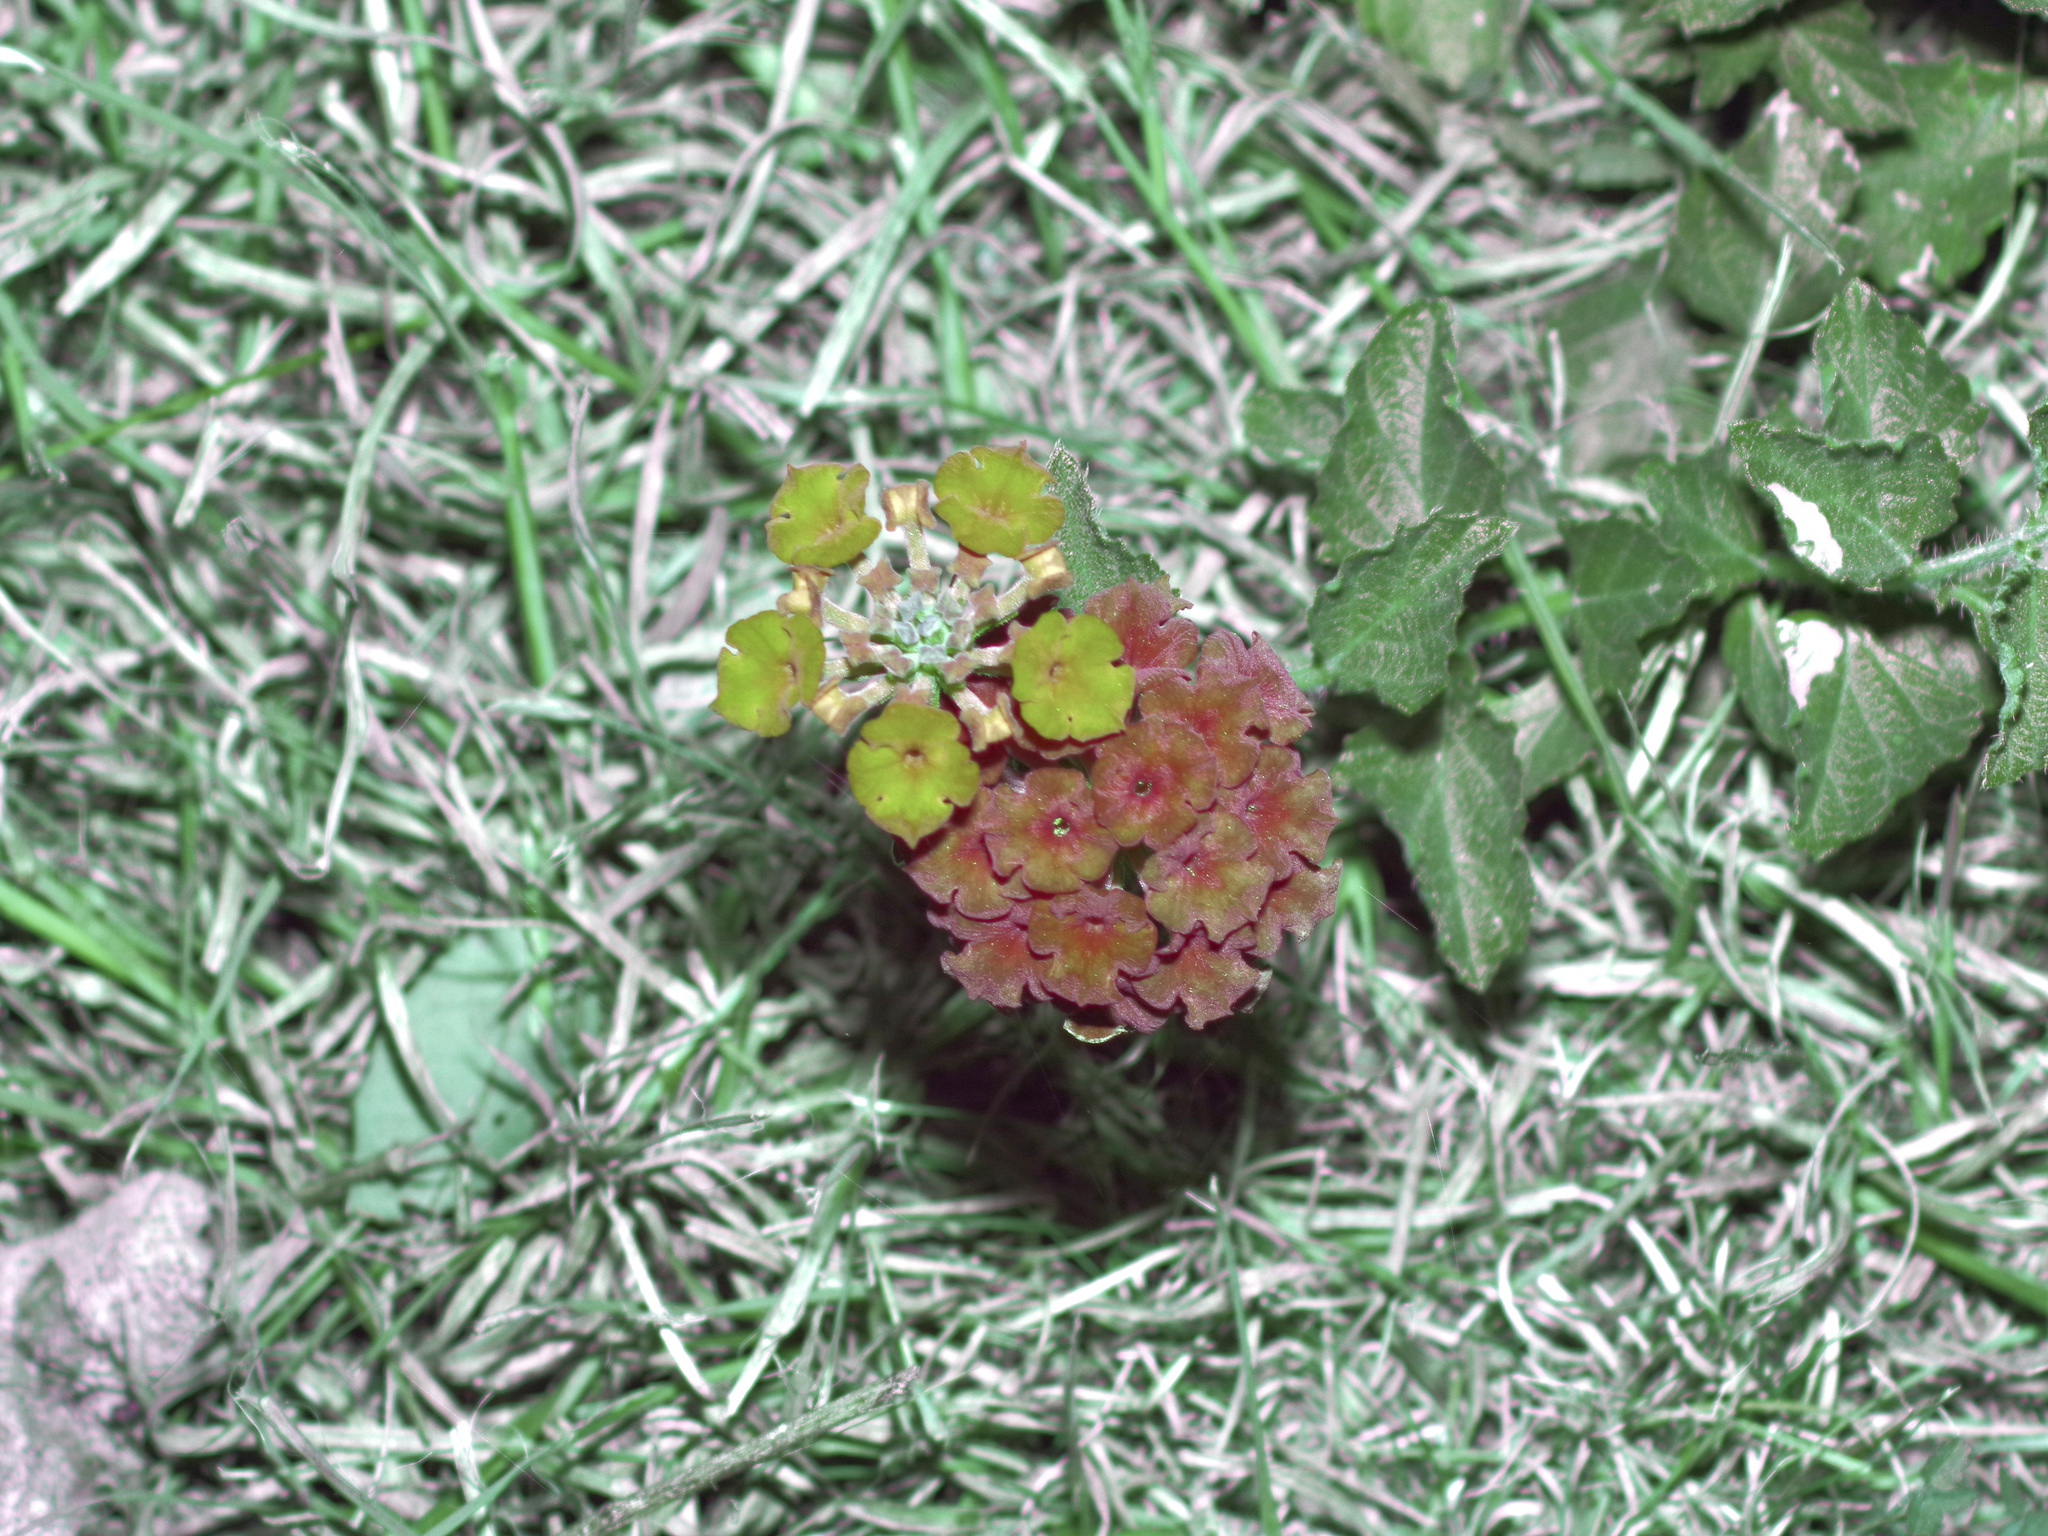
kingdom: Plantae
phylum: Tracheophyta
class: Magnoliopsida
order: Lamiales
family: Verbenaceae
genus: Lantana
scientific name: Lantana urticoides
